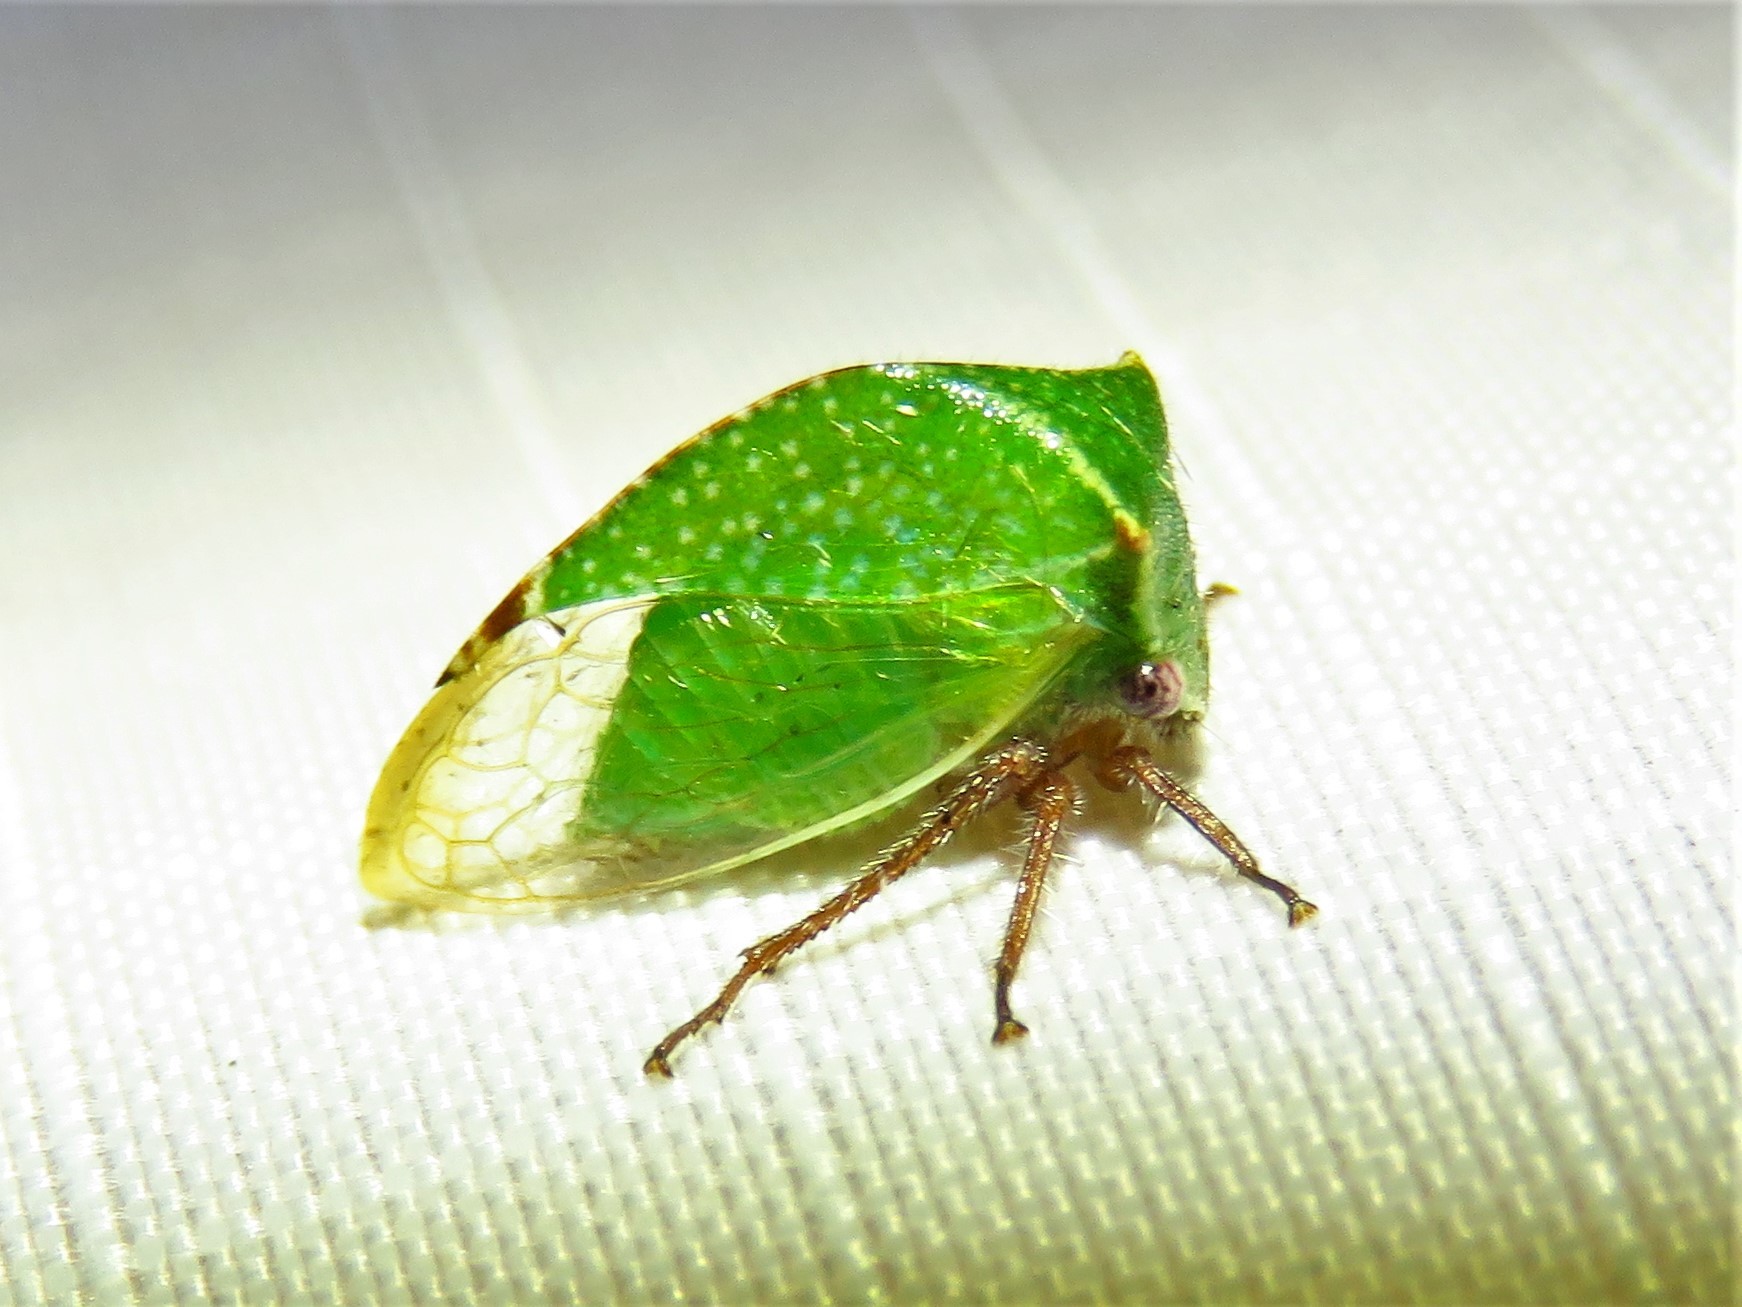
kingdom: Animalia
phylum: Arthropoda
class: Insecta
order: Hemiptera
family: Membracidae
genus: Tortistilus
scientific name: Tortistilus abnorma
